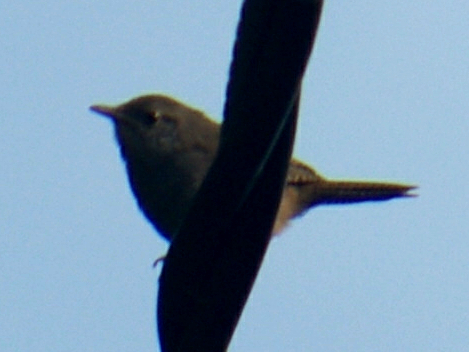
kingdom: Animalia
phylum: Chordata
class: Aves
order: Passeriformes
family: Troglodytidae
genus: Troglodytes
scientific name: Troglodytes aedon
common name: House wren
